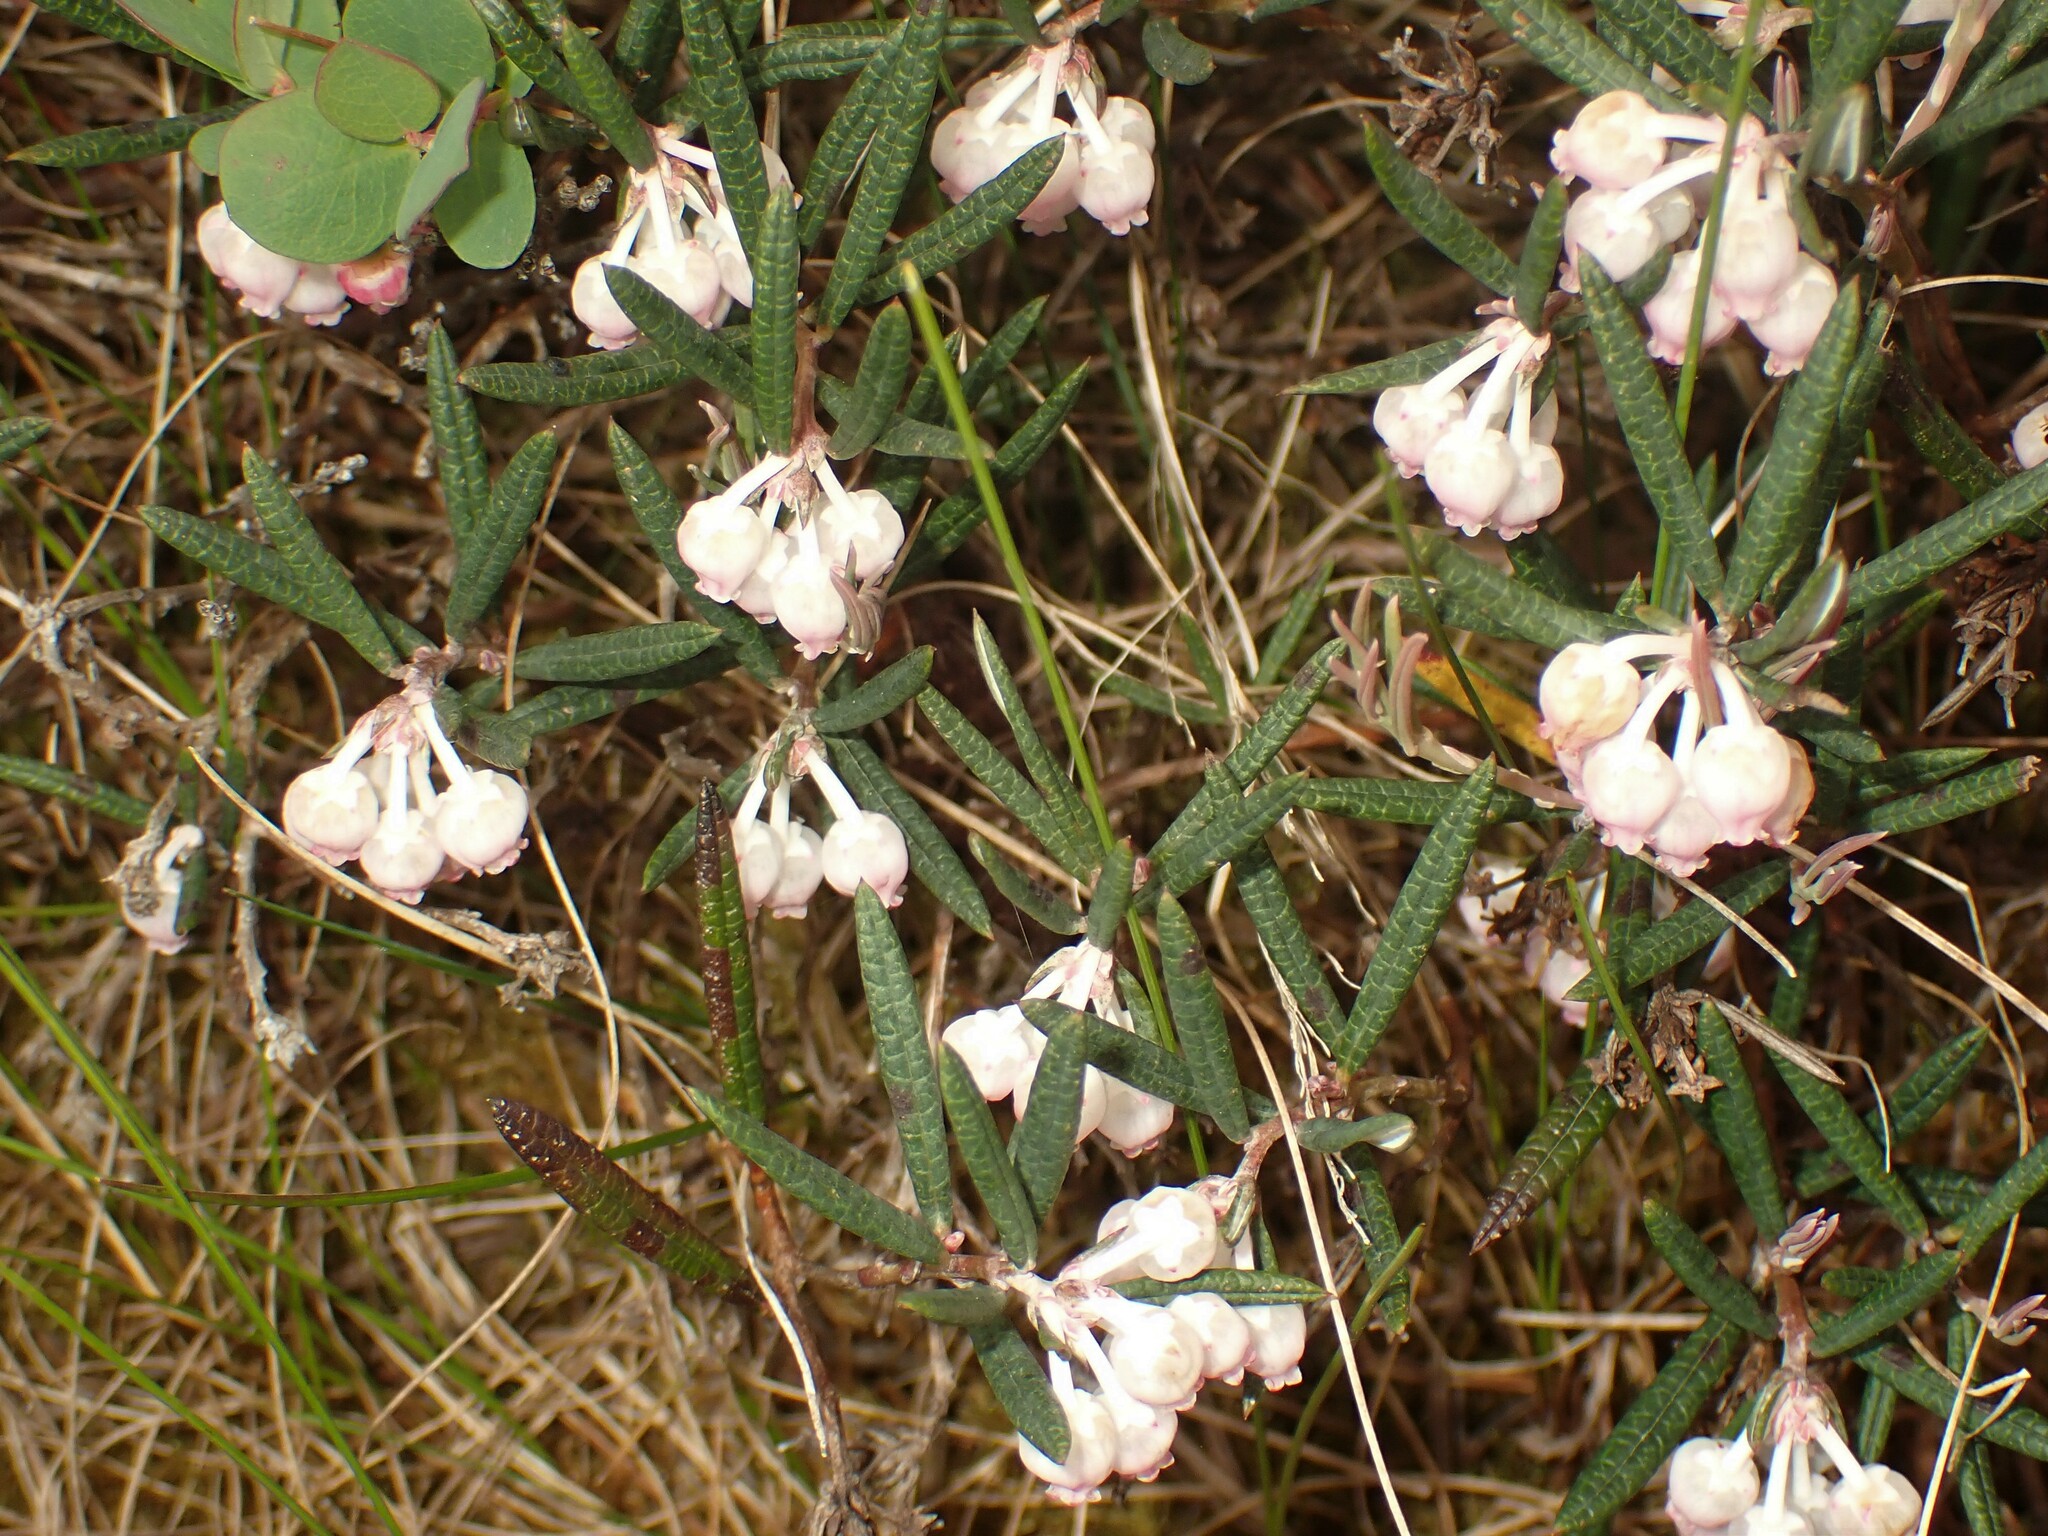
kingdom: Plantae
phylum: Tracheophyta
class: Magnoliopsida
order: Ericales
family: Ericaceae
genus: Andromeda
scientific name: Andromeda polifolia
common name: Bog-rosemary
